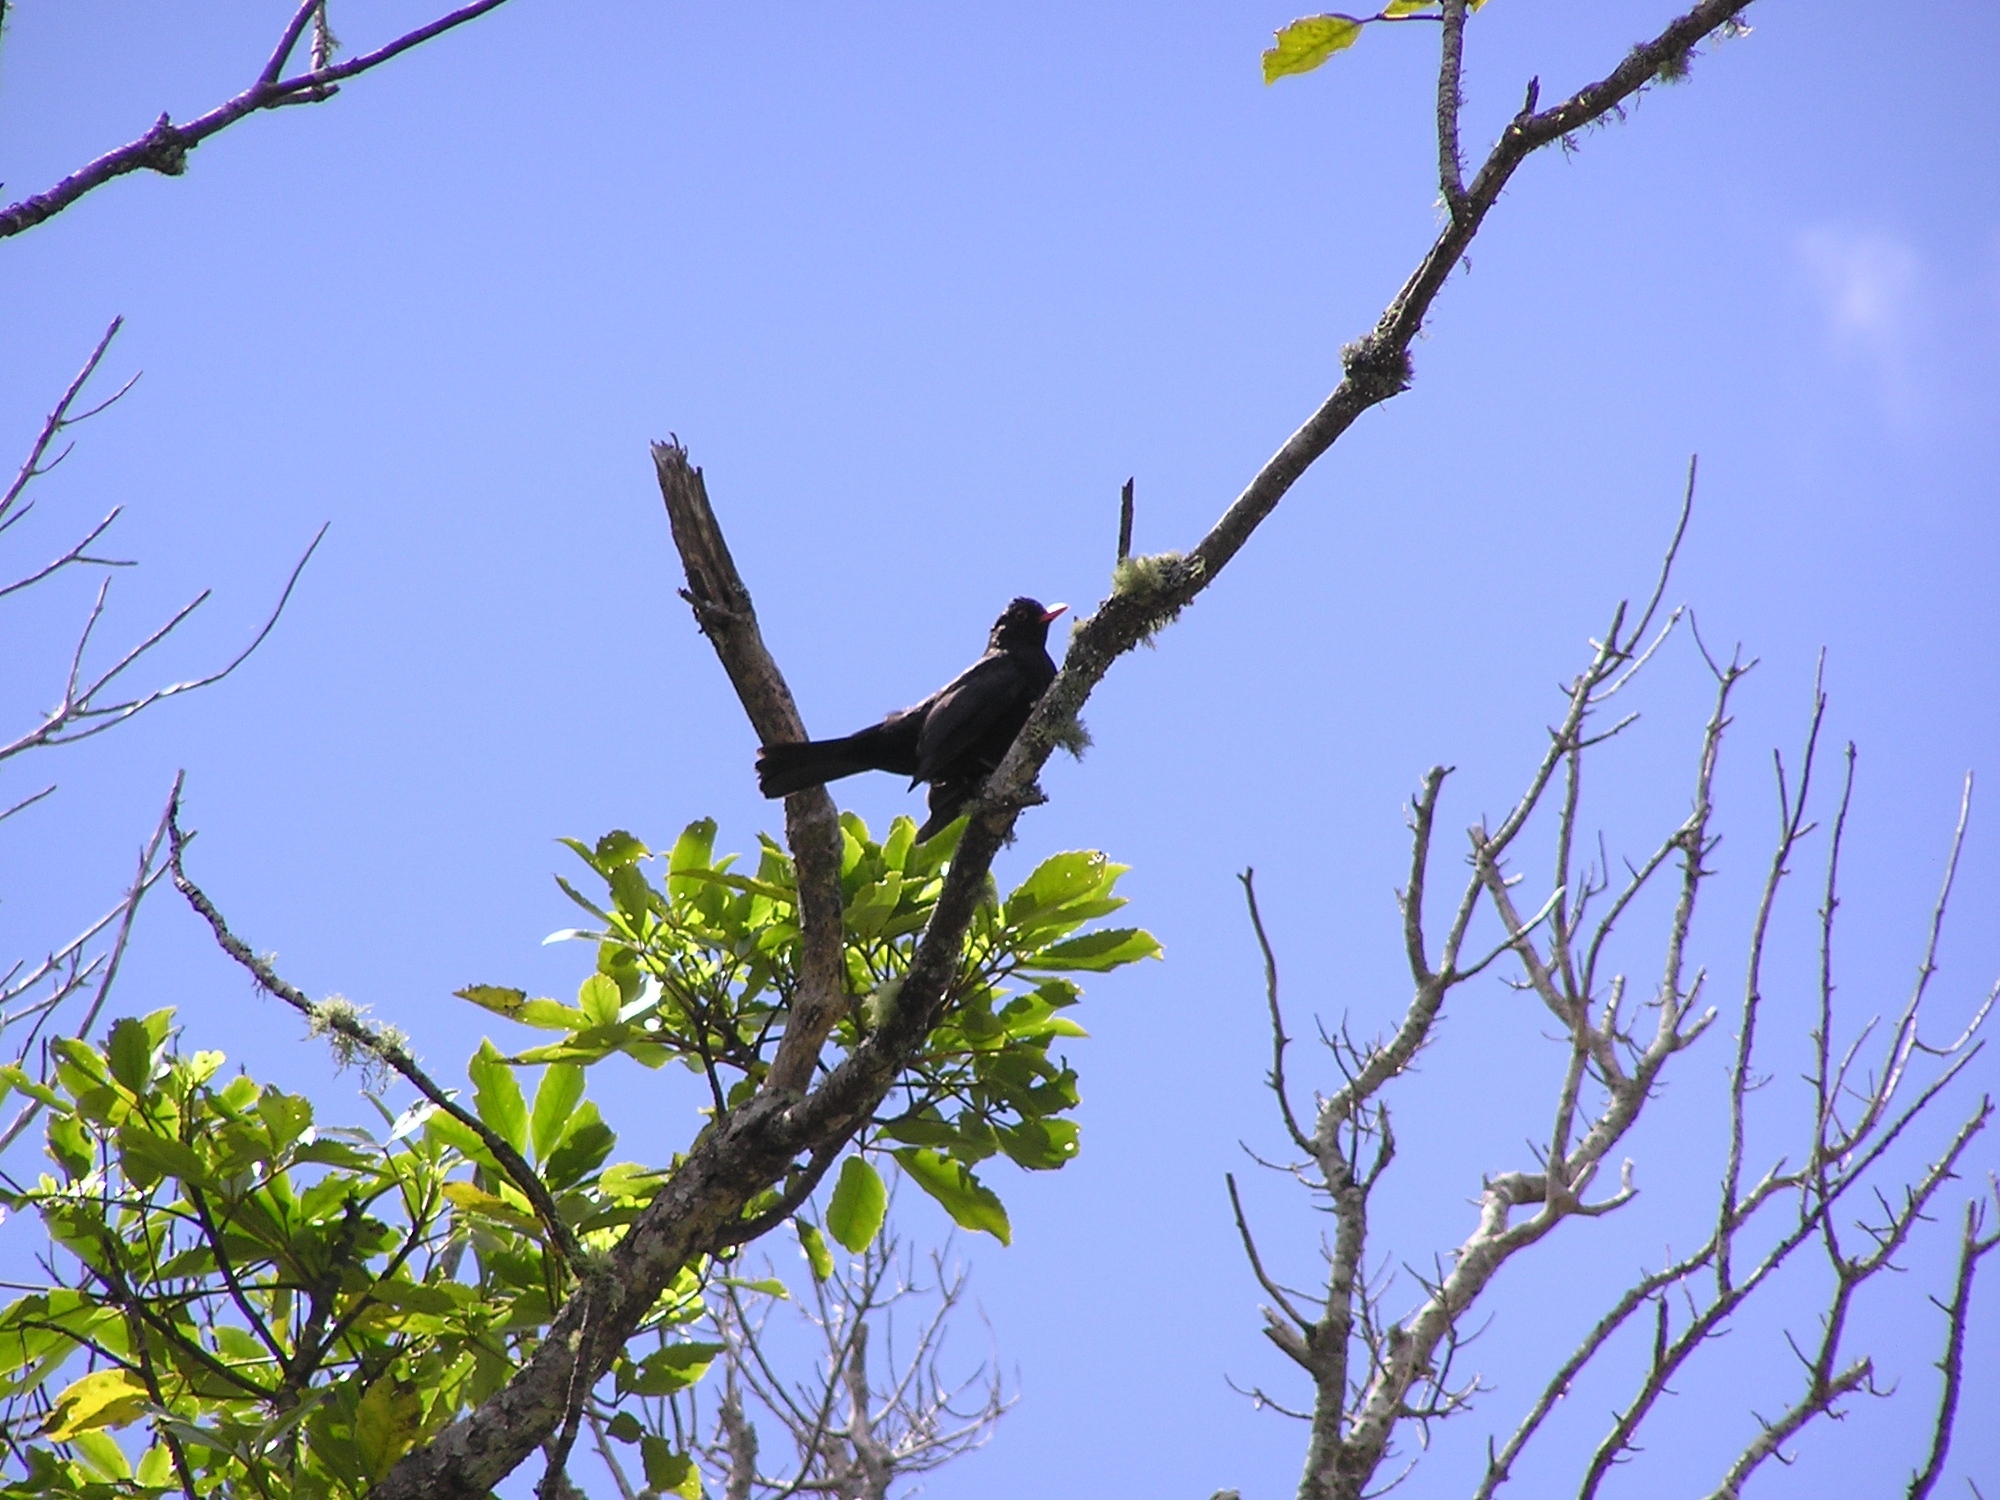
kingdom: Animalia
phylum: Chordata
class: Aves
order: Passeriformes
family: Turdidae
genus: Turdus
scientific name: Turdus merula
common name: Common blackbird
